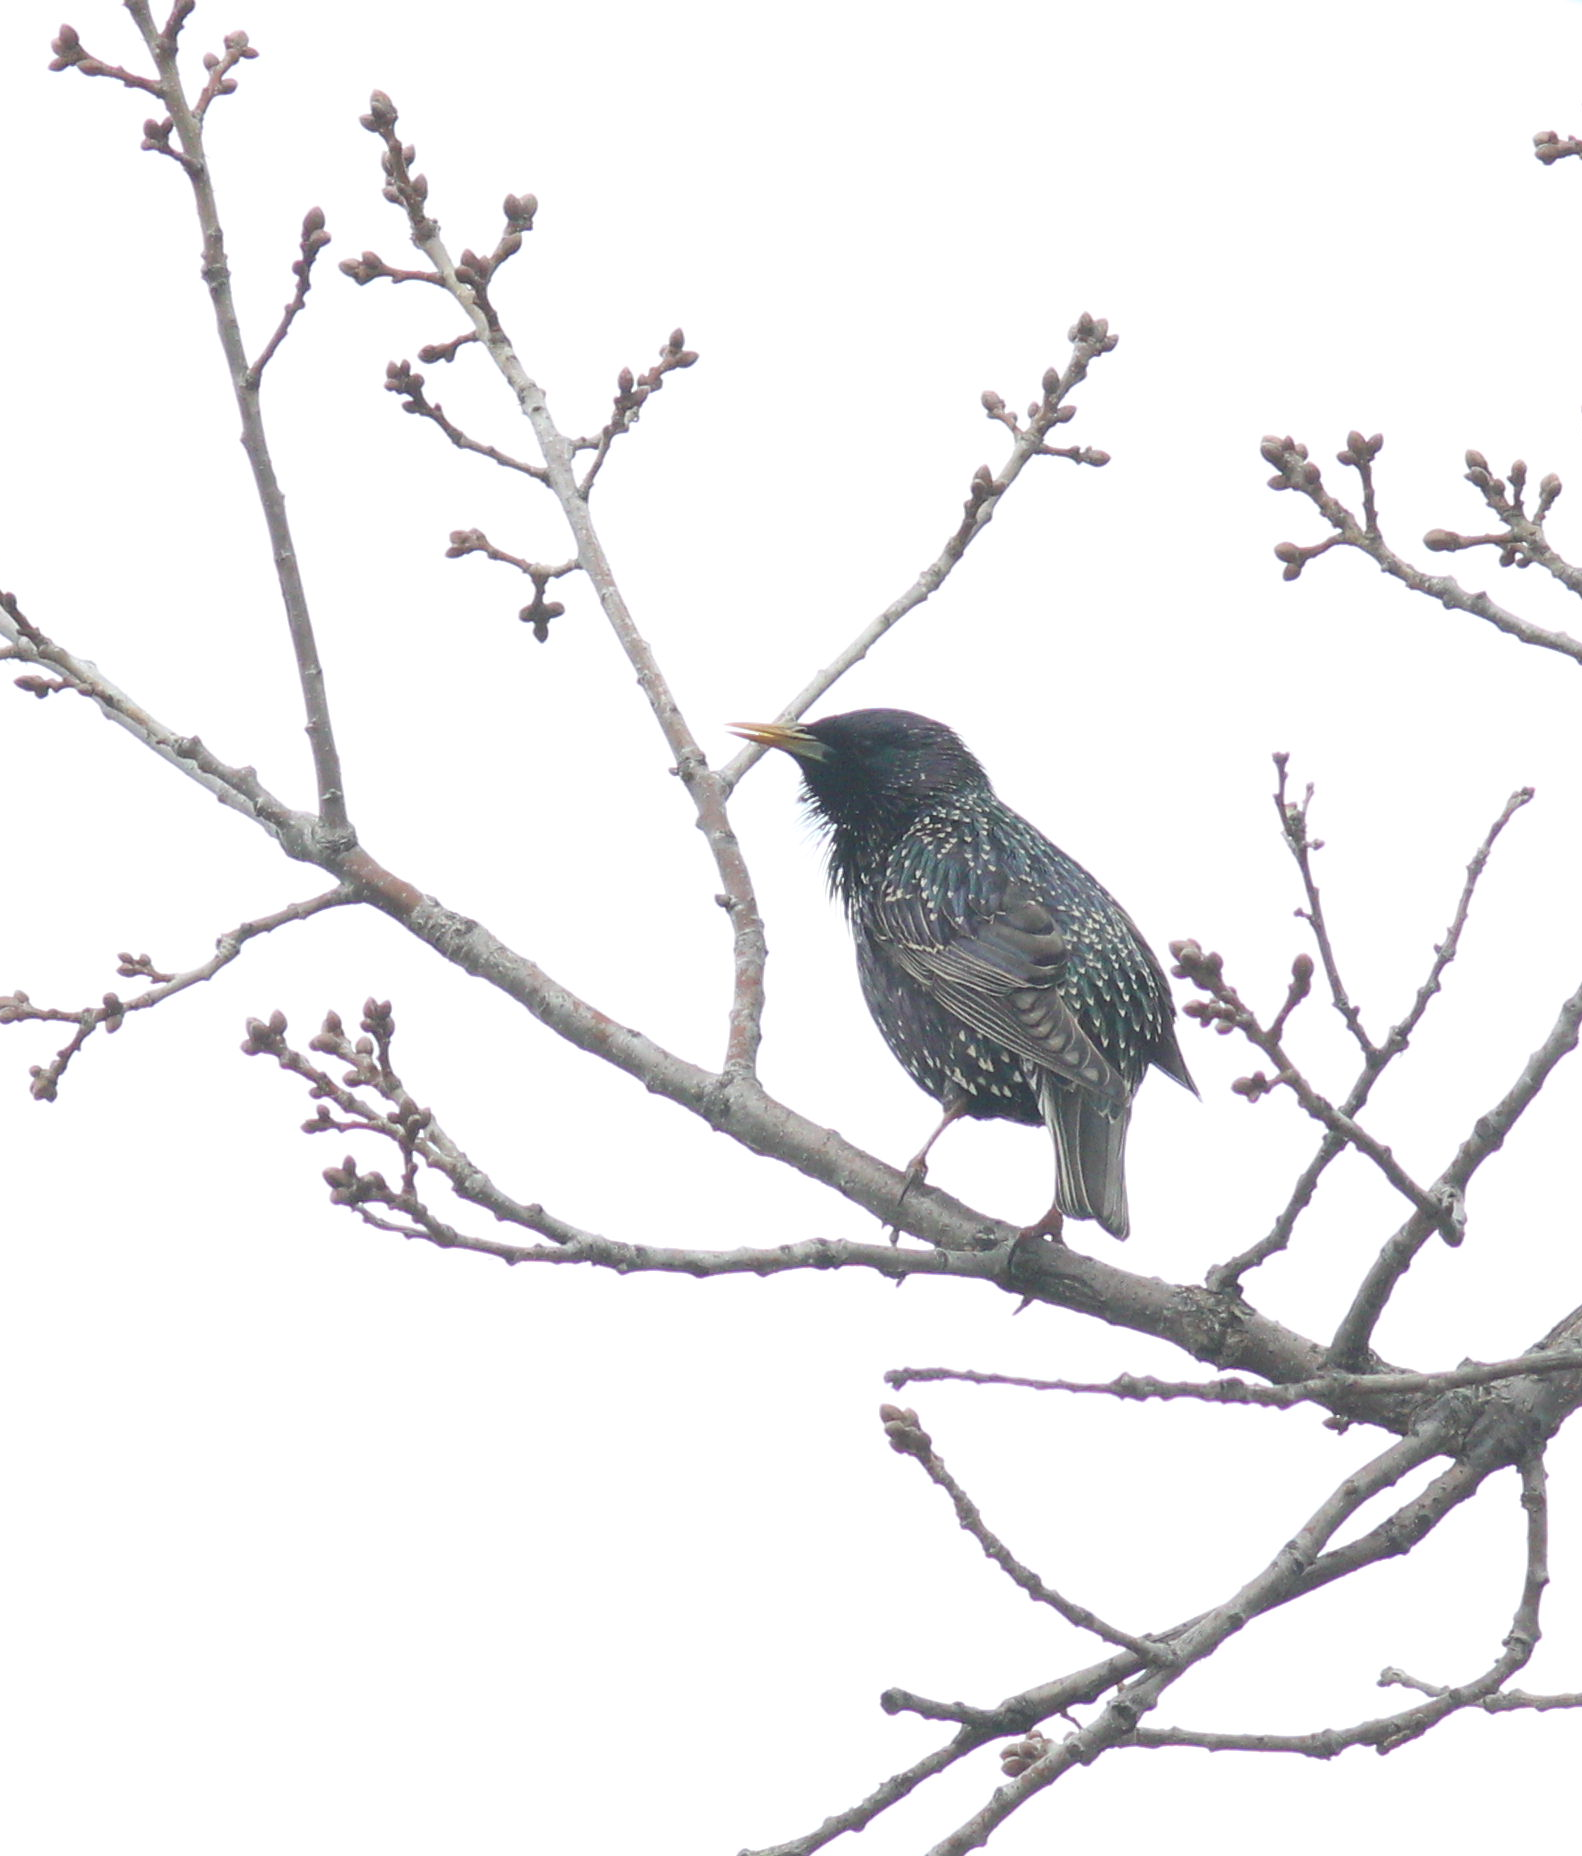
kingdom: Animalia
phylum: Chordata
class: Aves
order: Passeriformes
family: Sturnidae
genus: Sturnus
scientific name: Sturnus vulgaris
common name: Common starling
